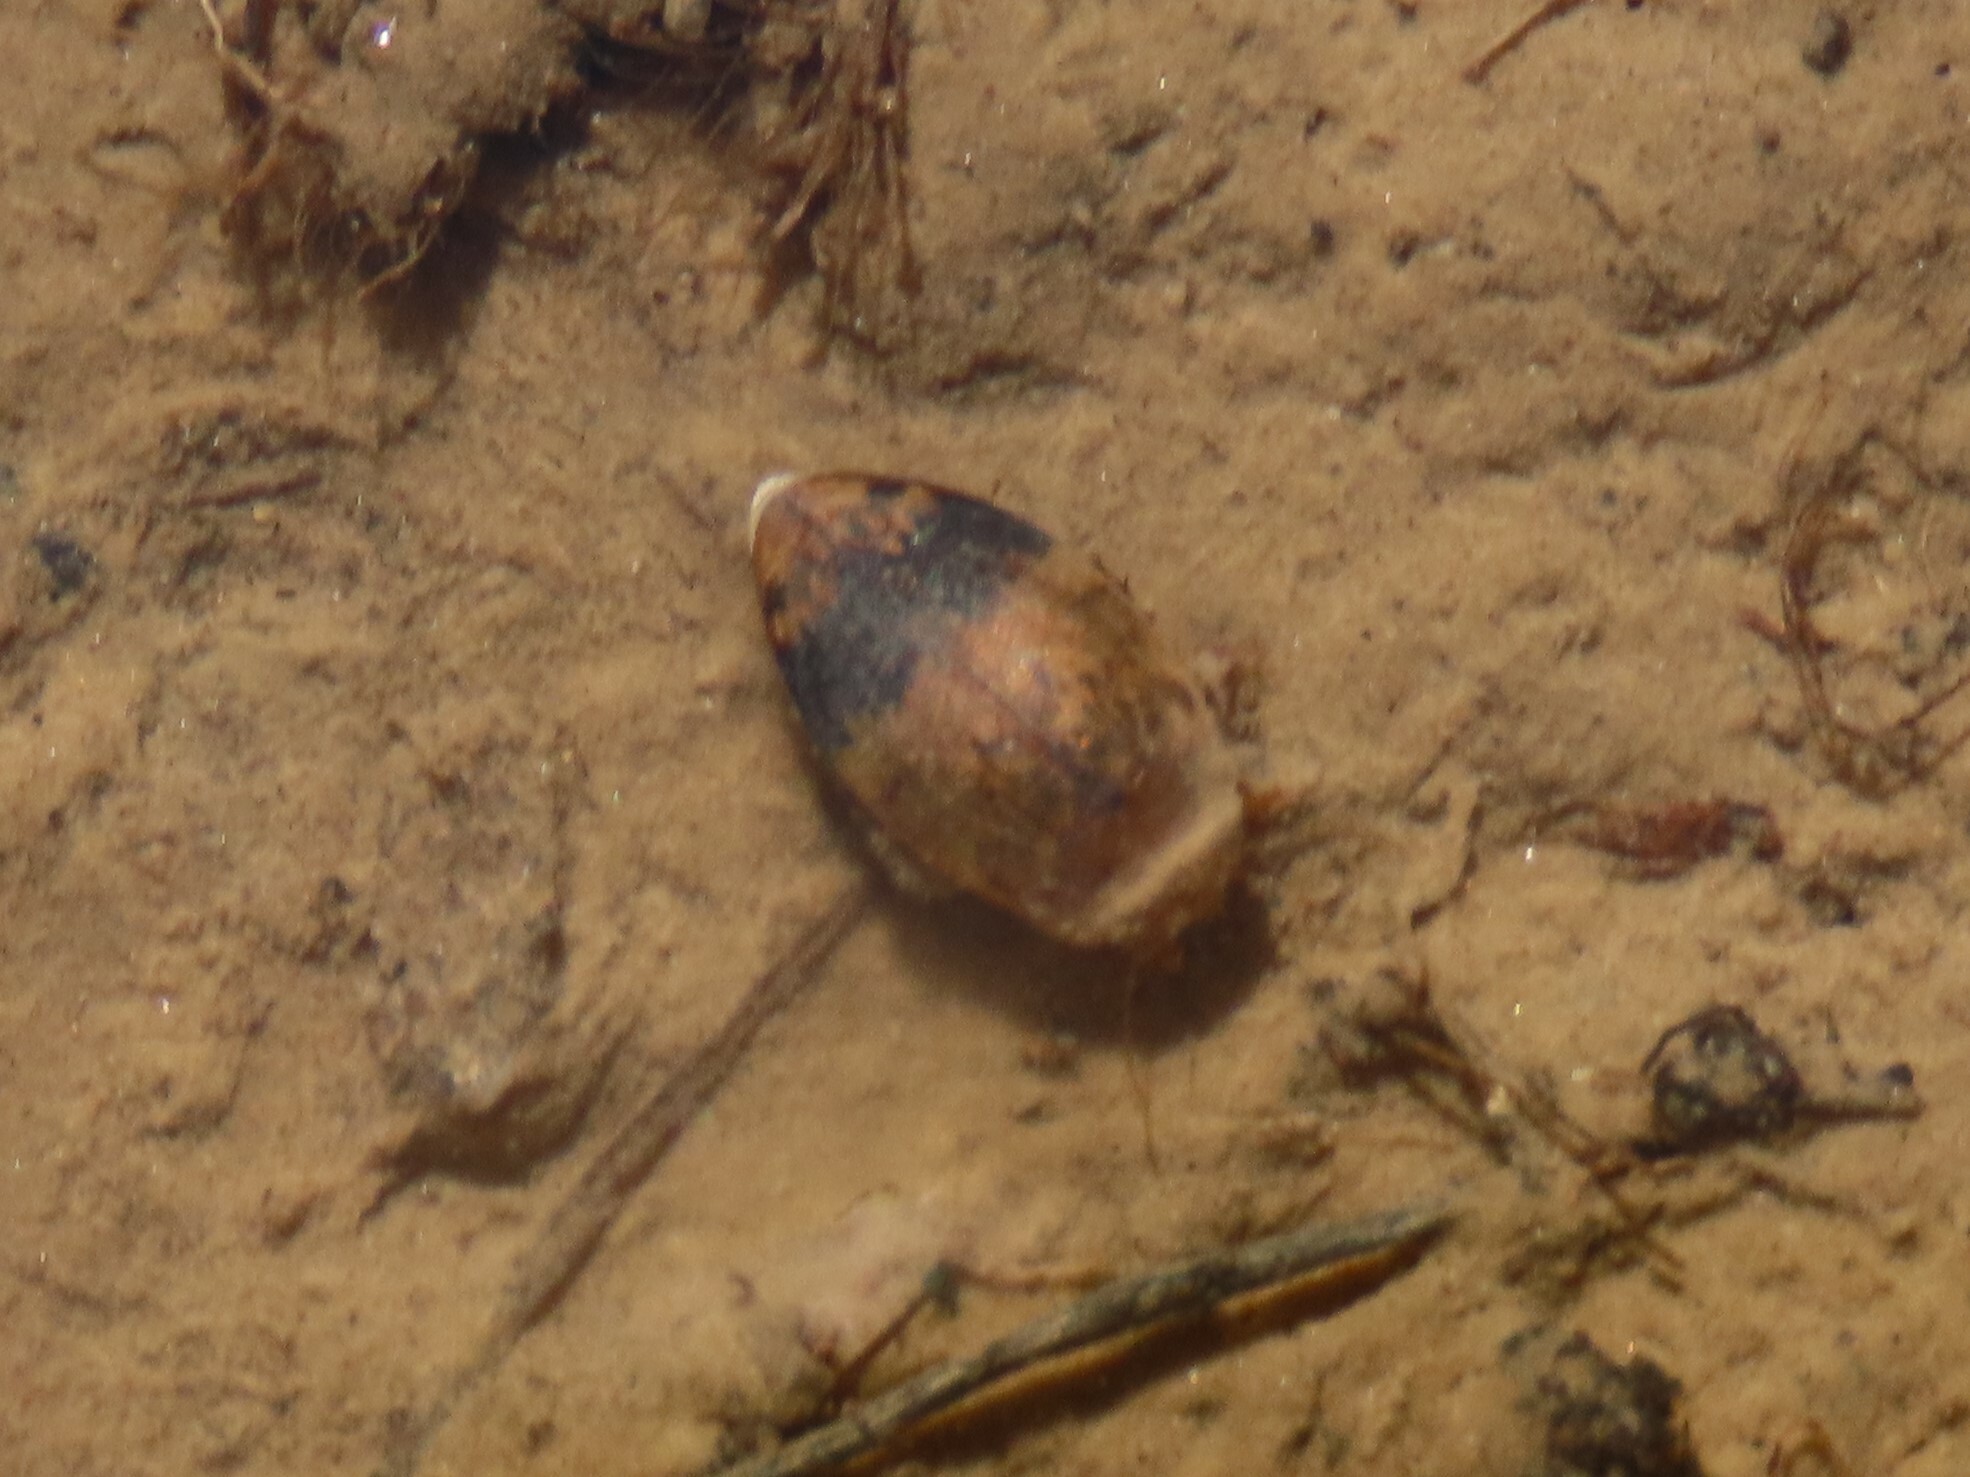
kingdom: Animalia
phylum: Arthropoda
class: Insecta
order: Coleoptera
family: Dytiscidae
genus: Laccophilus
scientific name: Laccophilus fasciatus
